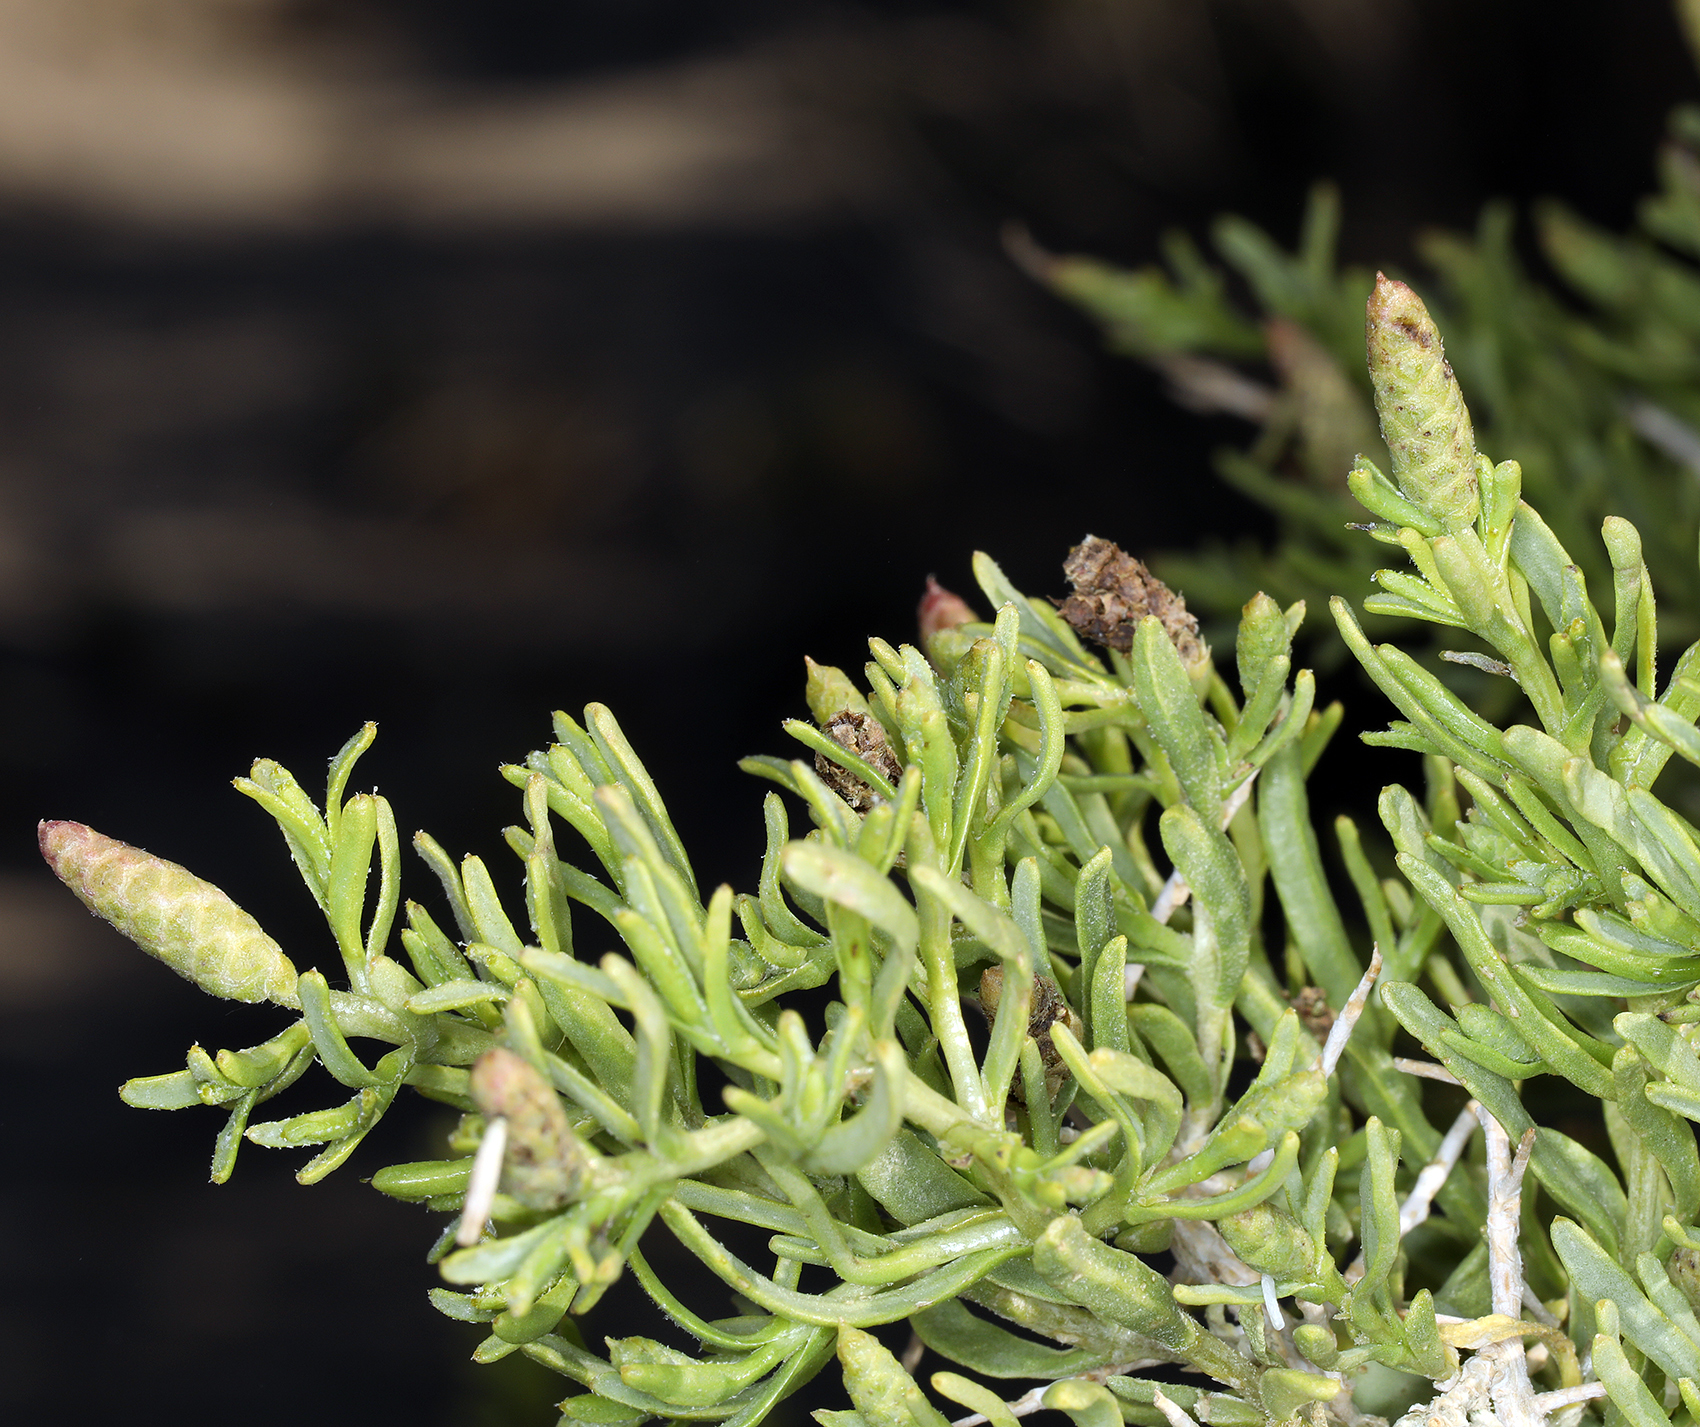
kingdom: Plantae
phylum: Tracheophyta
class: Magnoliopsida
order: Caryophyllales
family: Sarcobataceae
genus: Sarcobatus
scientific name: Sarcobatus vermiculatus
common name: Greasewood
